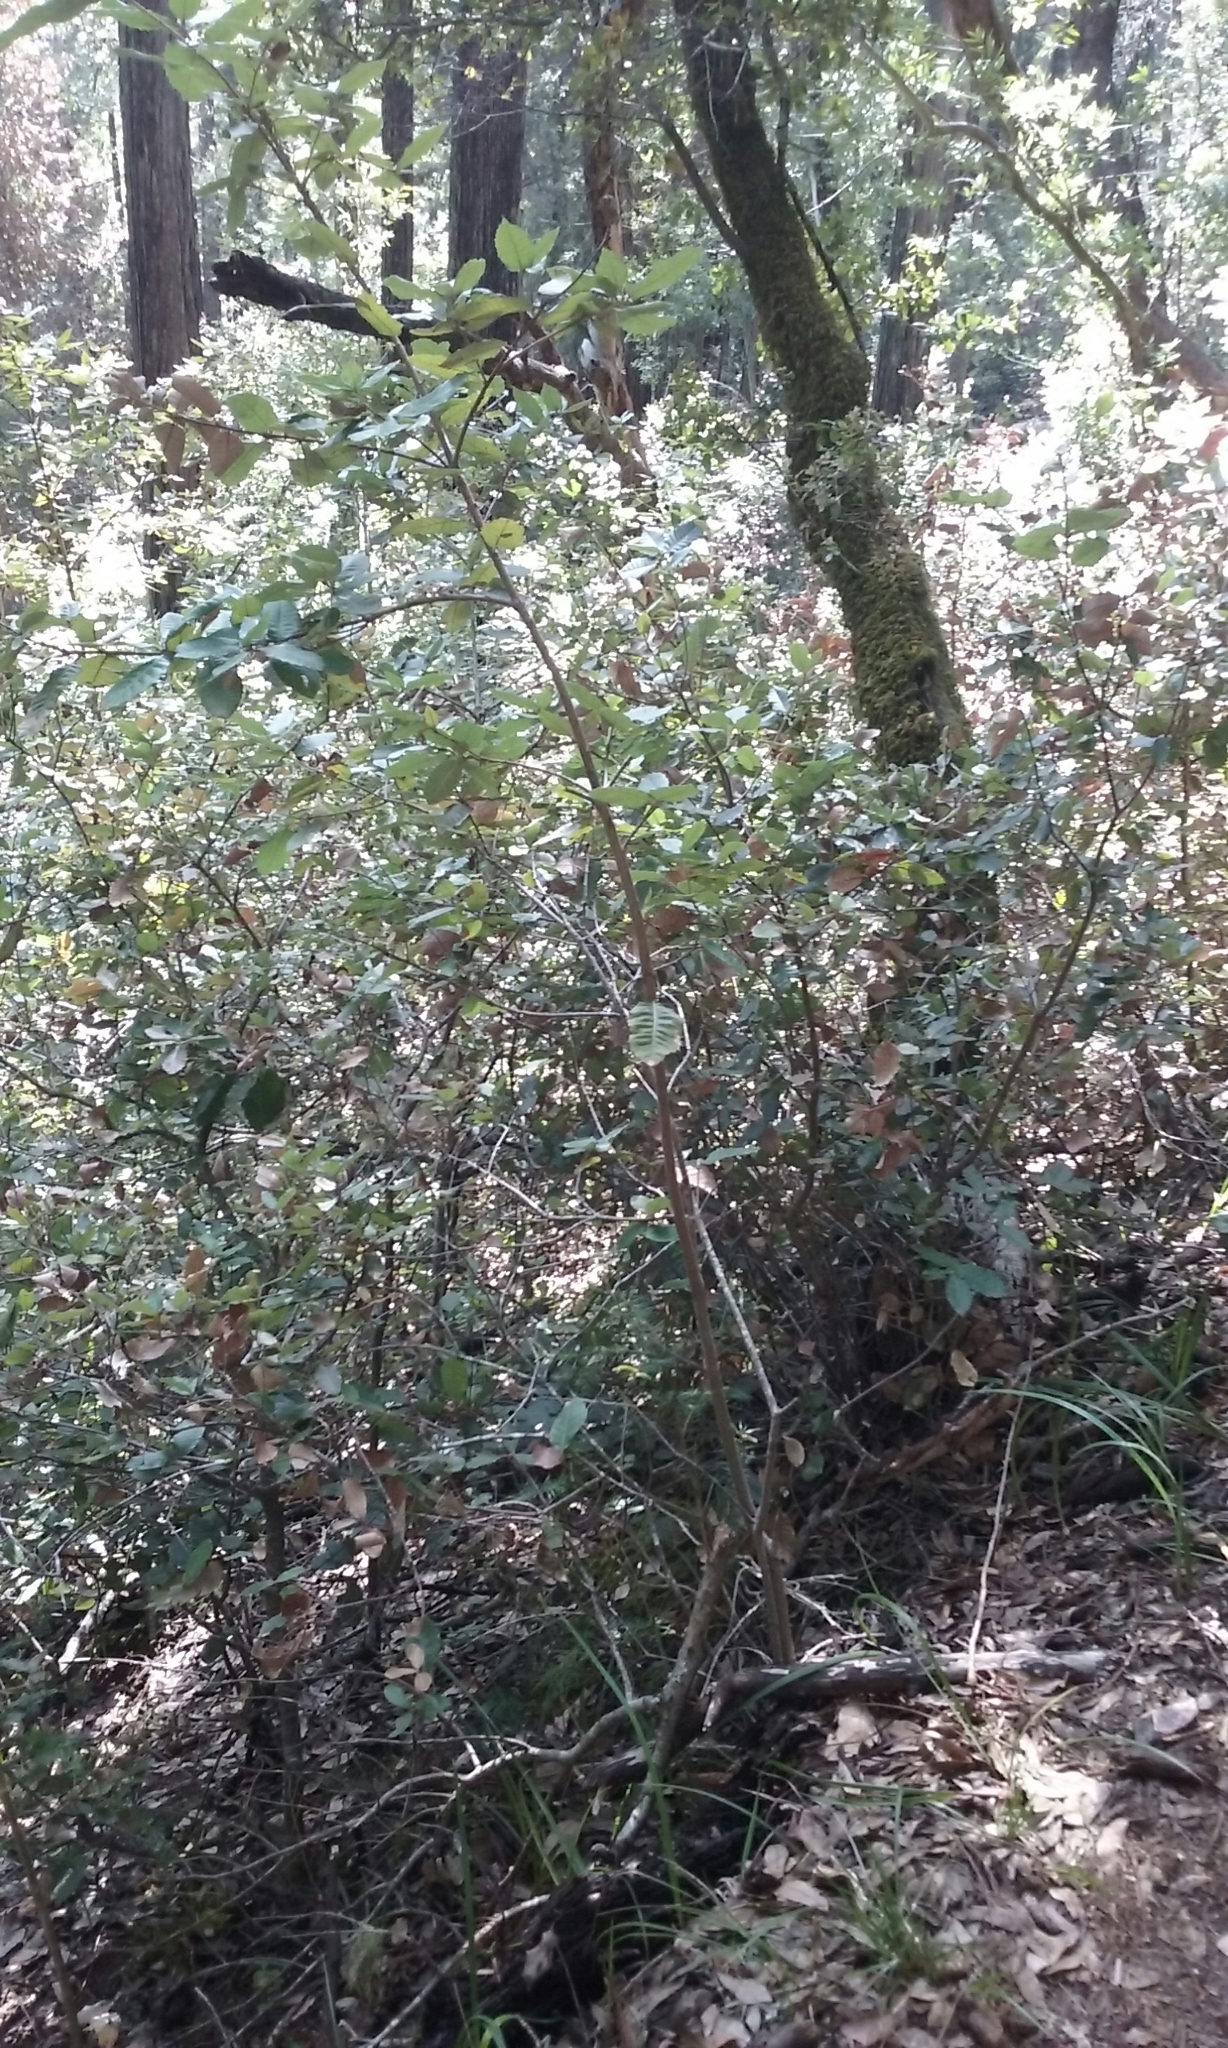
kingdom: Plantae
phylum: Tracheophyta
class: Magnoliopsida
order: Fagales
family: Fagaceae
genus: Notholithocarpus
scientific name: Notholithocarpus densiflorus
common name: Tan bark oak
